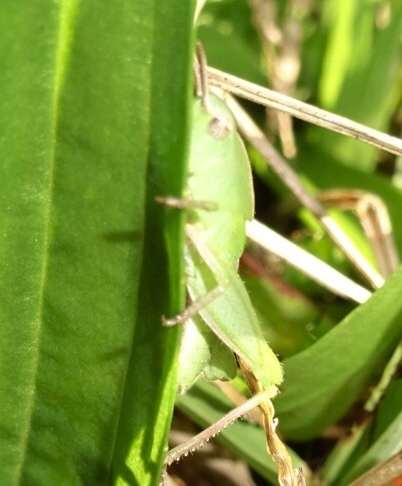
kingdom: Animalia
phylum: Arthropoda
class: Insecta
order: Orthoptera
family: Acrididae
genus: Chortophaga
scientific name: Chortophaga viridifasciata
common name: Green-striped grasshopper
